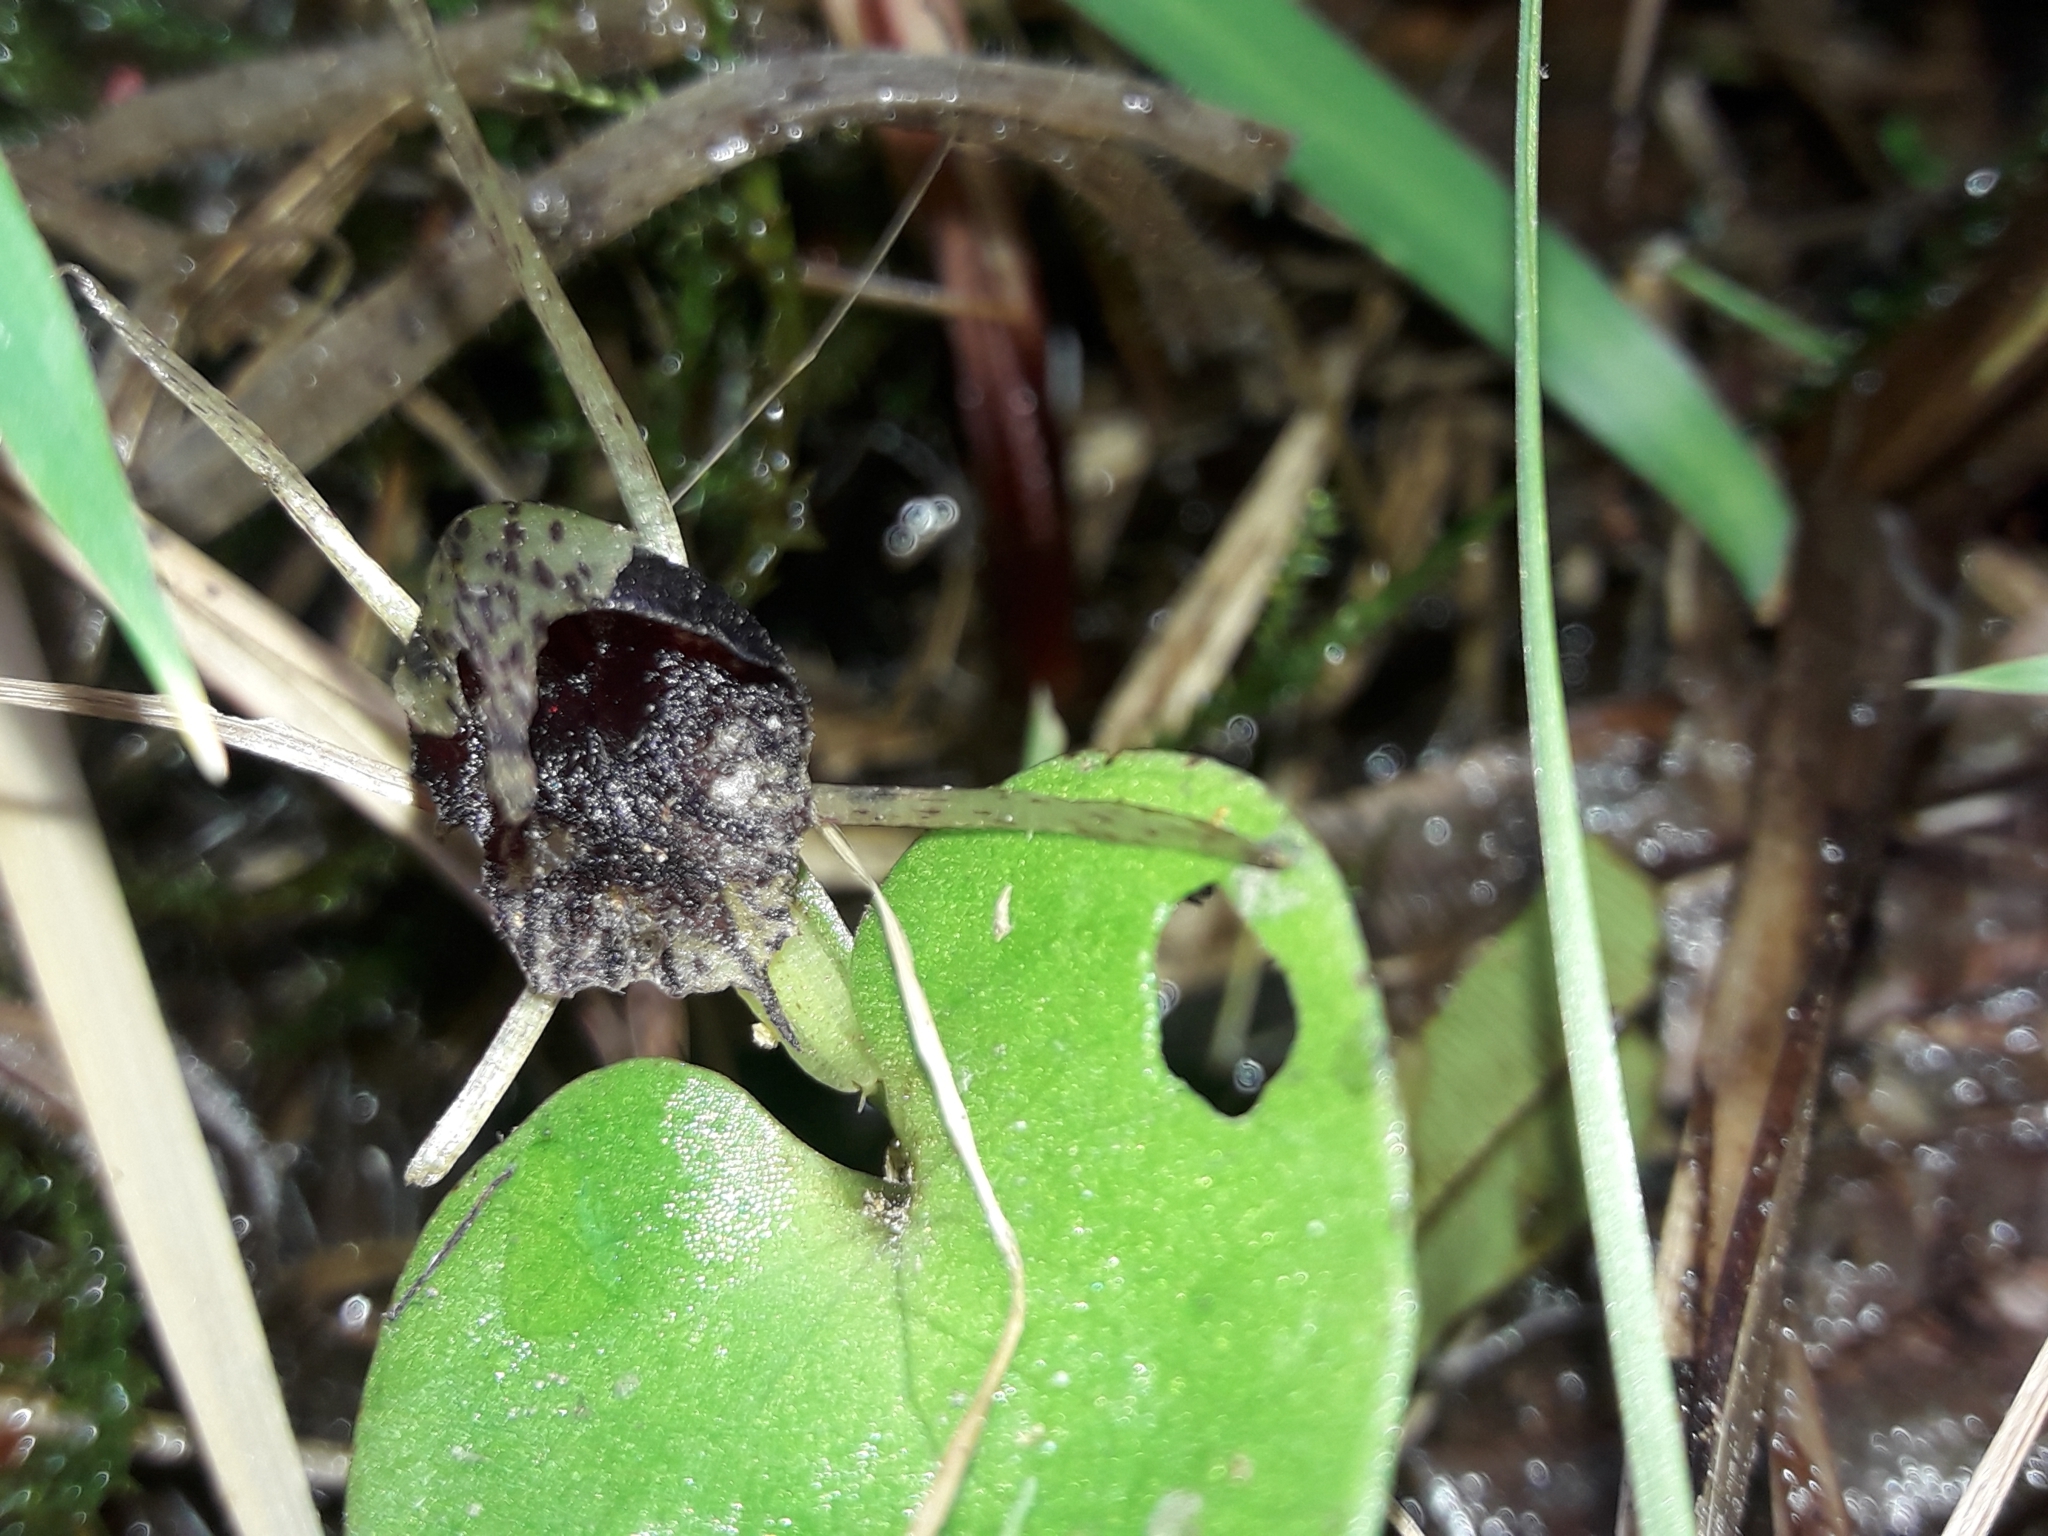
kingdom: Plantae
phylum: Tracheophyta
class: Liliopsida
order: Asparagales
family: Orchidaceae
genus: Corybas
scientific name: Corybas iridescens
